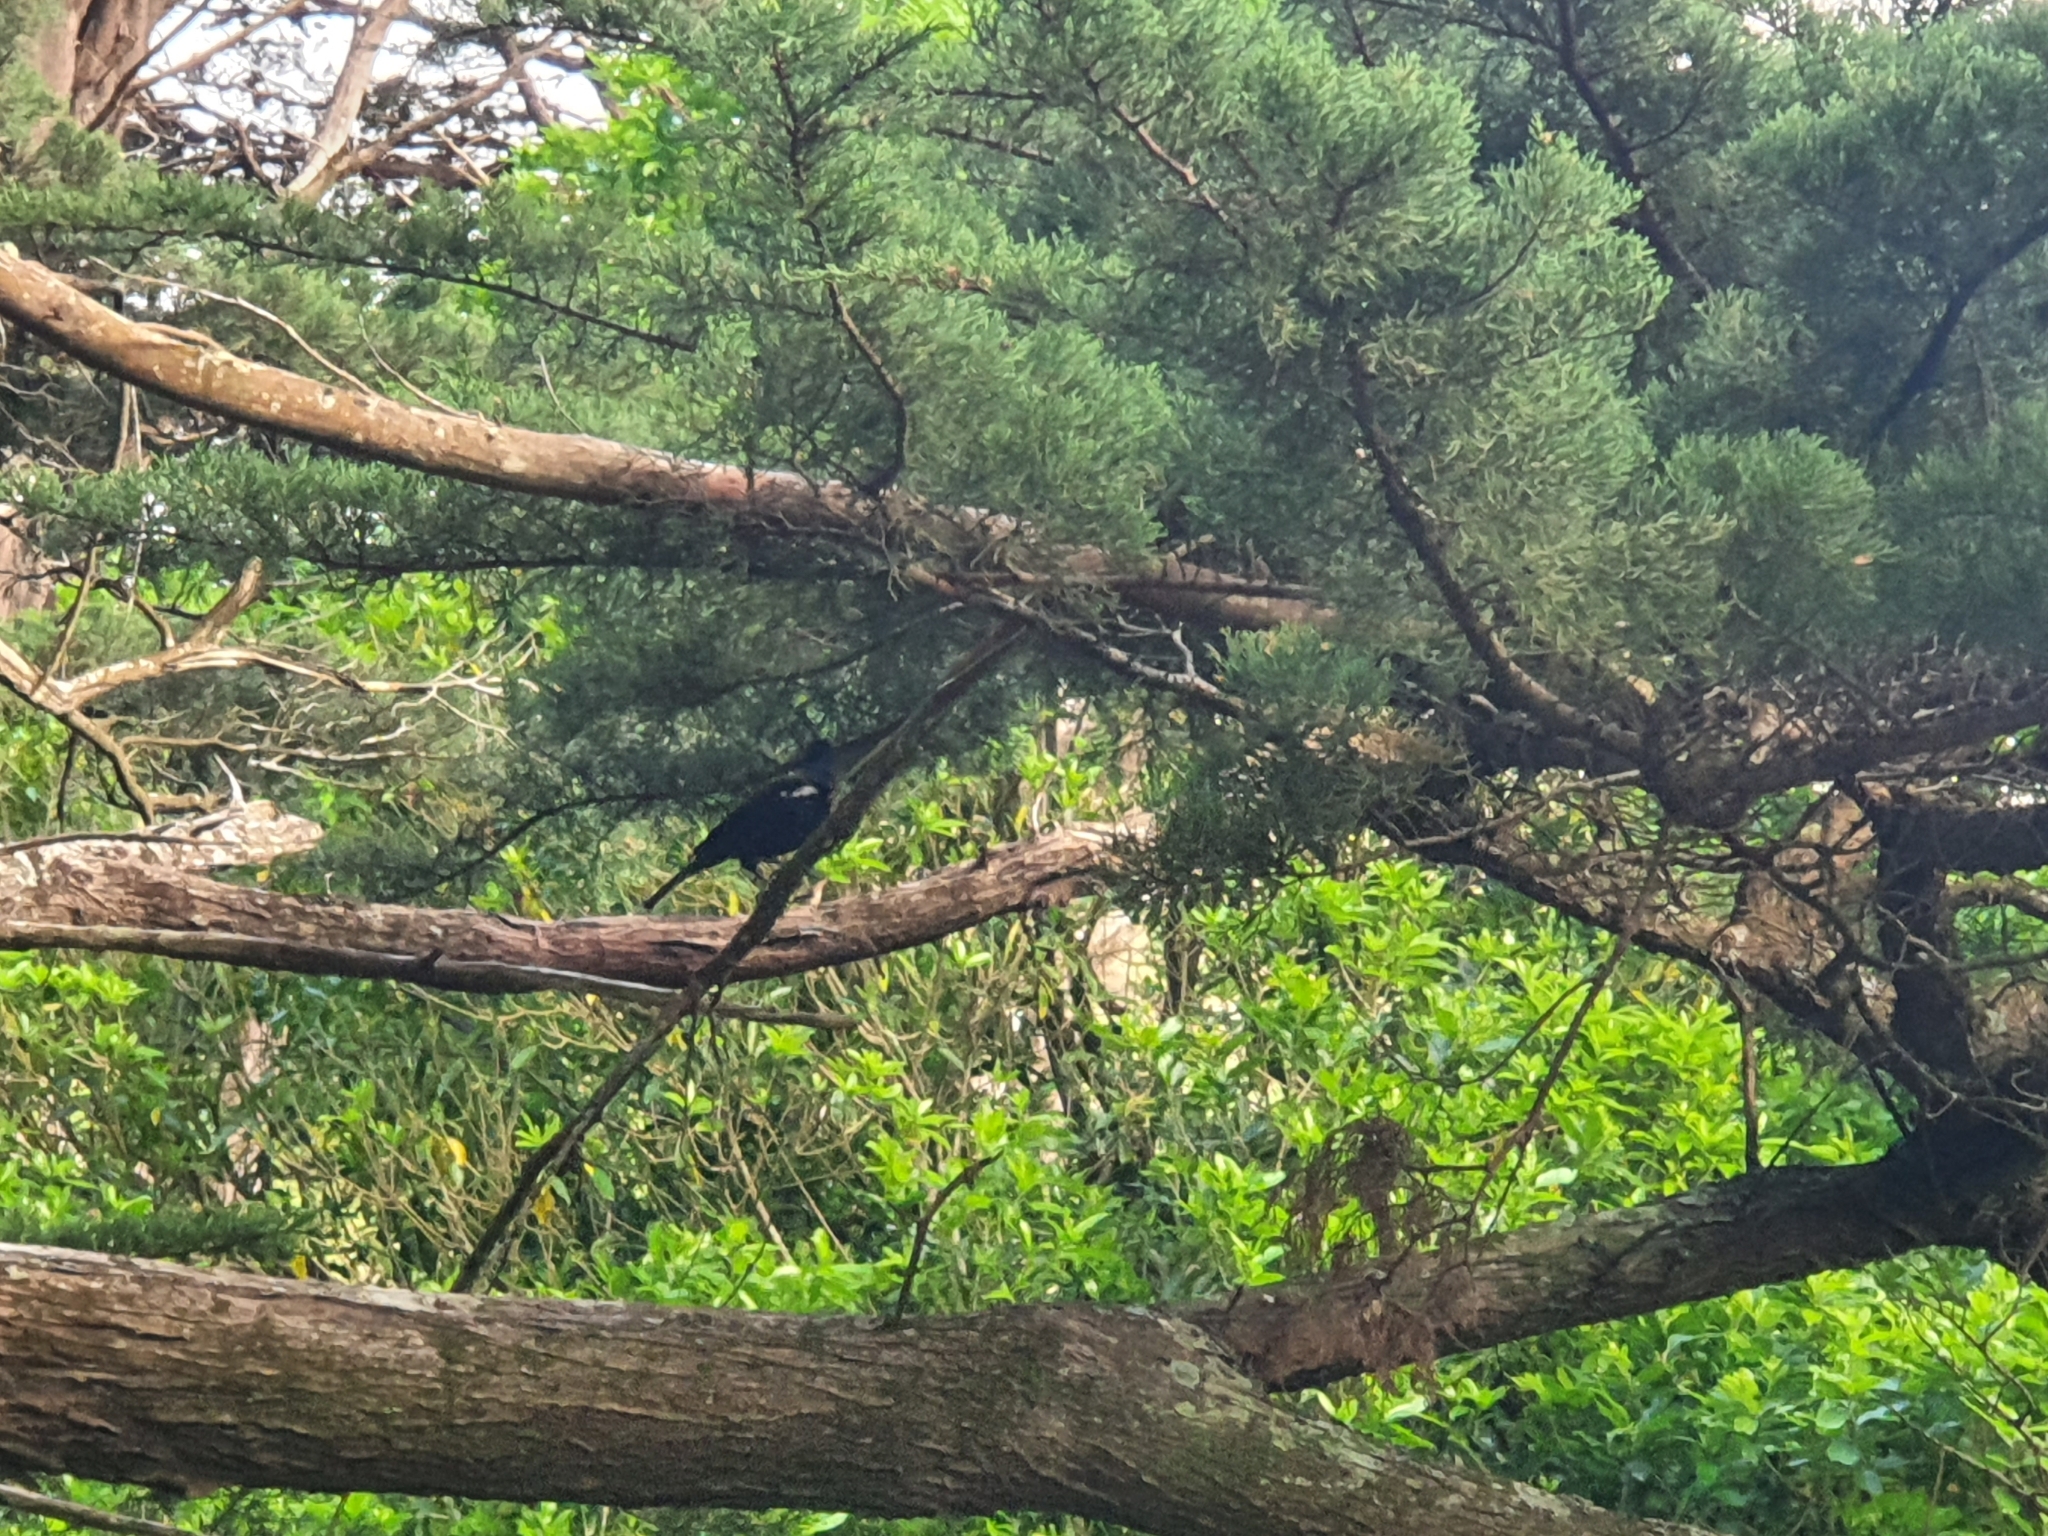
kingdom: Animalia
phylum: Chordata
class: Aves
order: Passeriformes
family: Meliphagidae
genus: Prosthemadera
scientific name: Prosthemadera novaeseelandiae
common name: Tui
